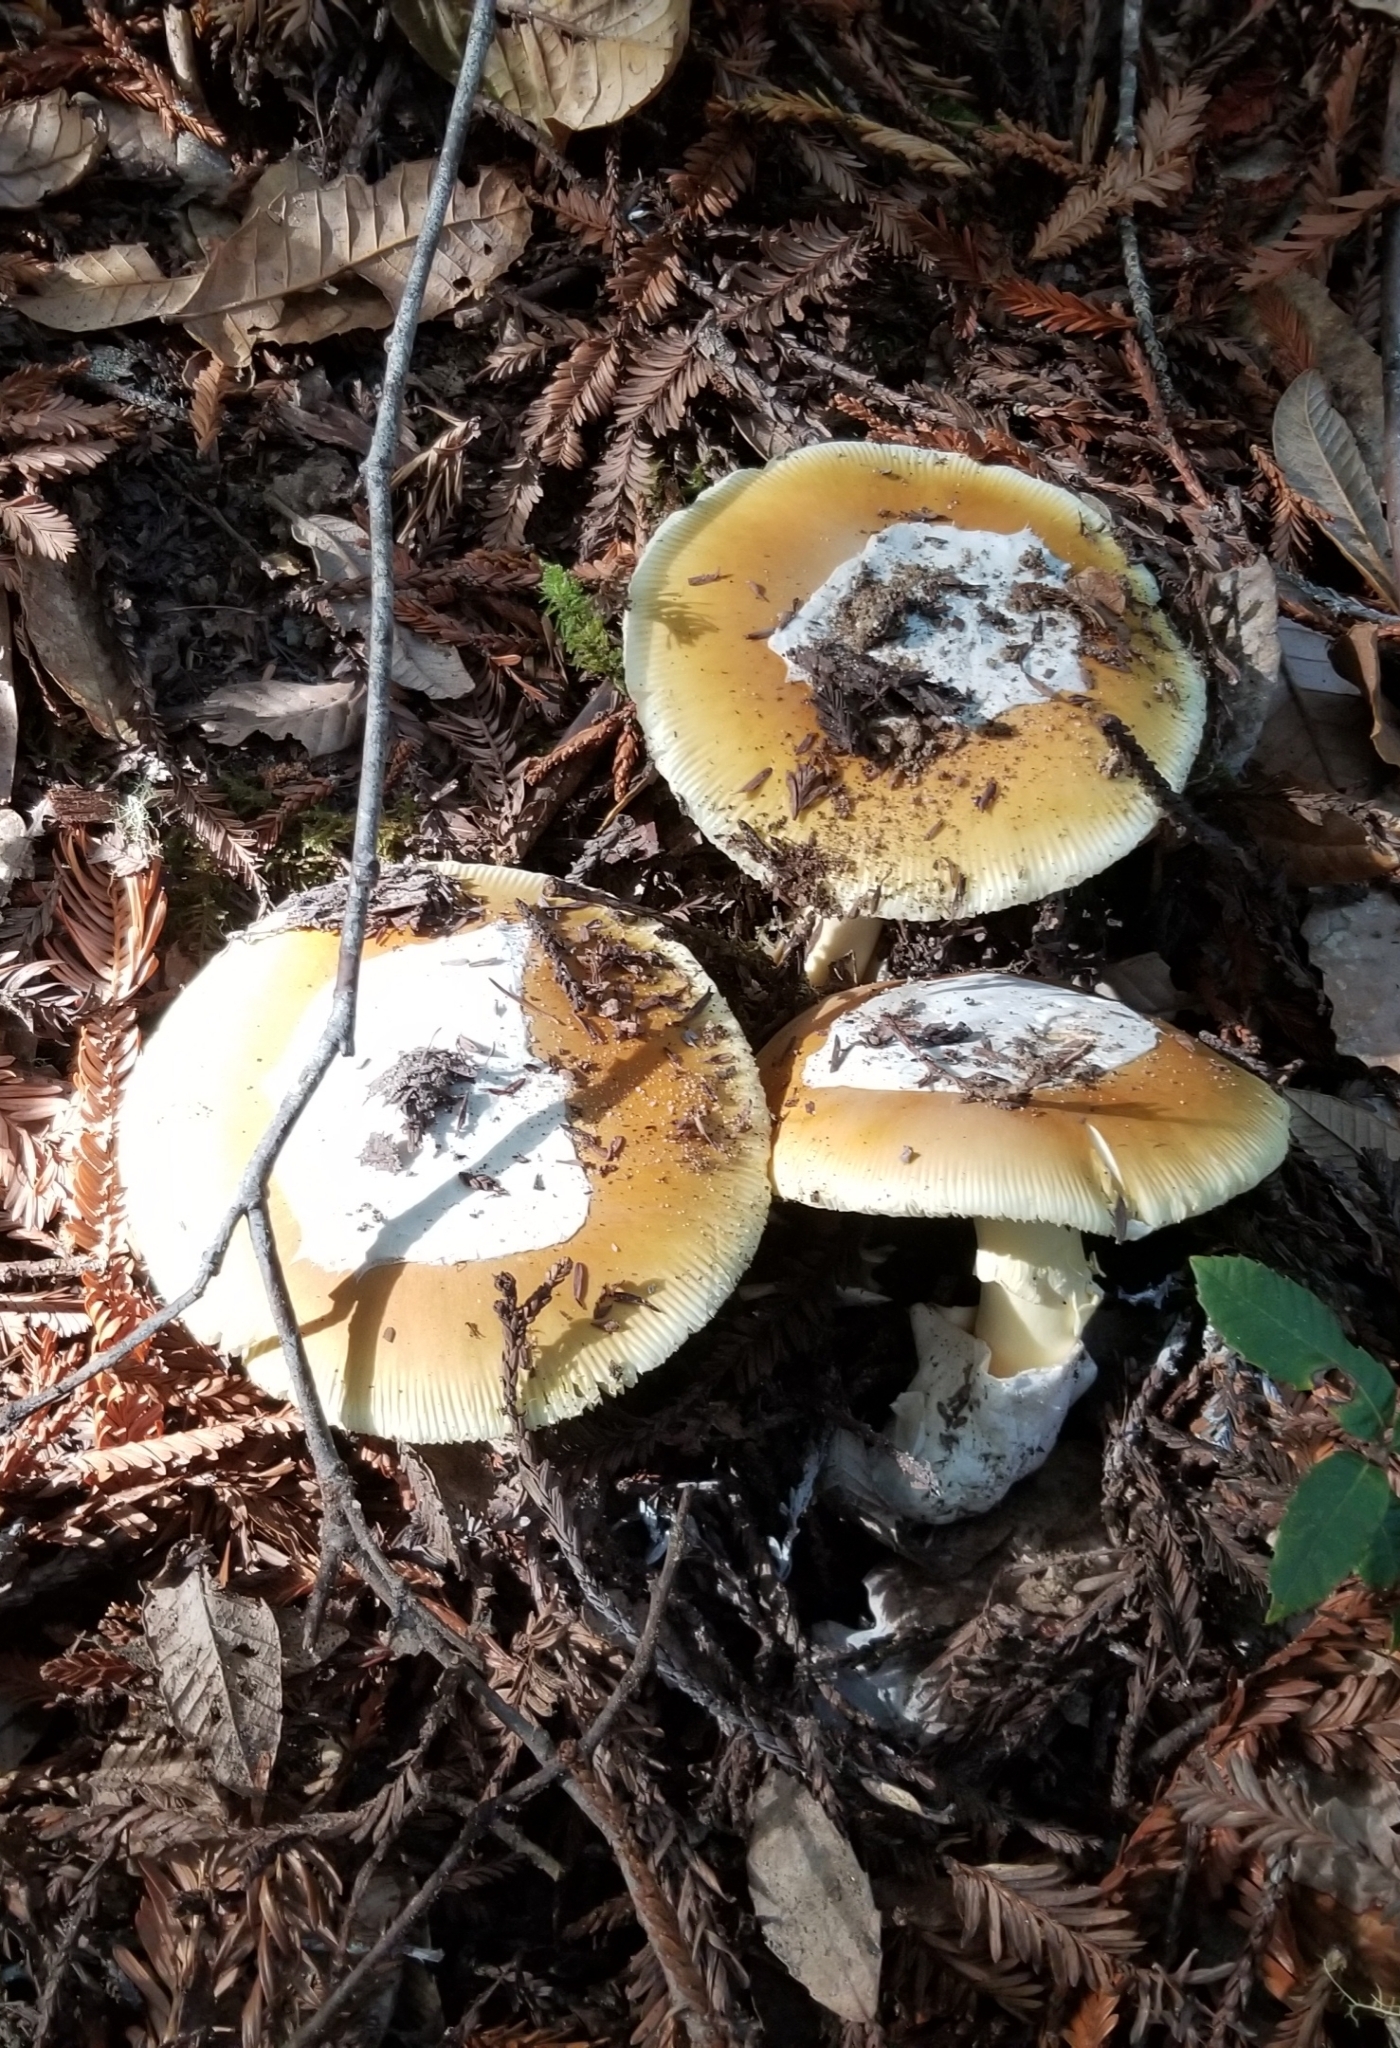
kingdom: Fungi
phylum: Basidiomycota
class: Agaricomycetes
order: Agaricales
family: Amanitaceae
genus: Amanita
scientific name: Amanita calyptroderma
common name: Coccora
